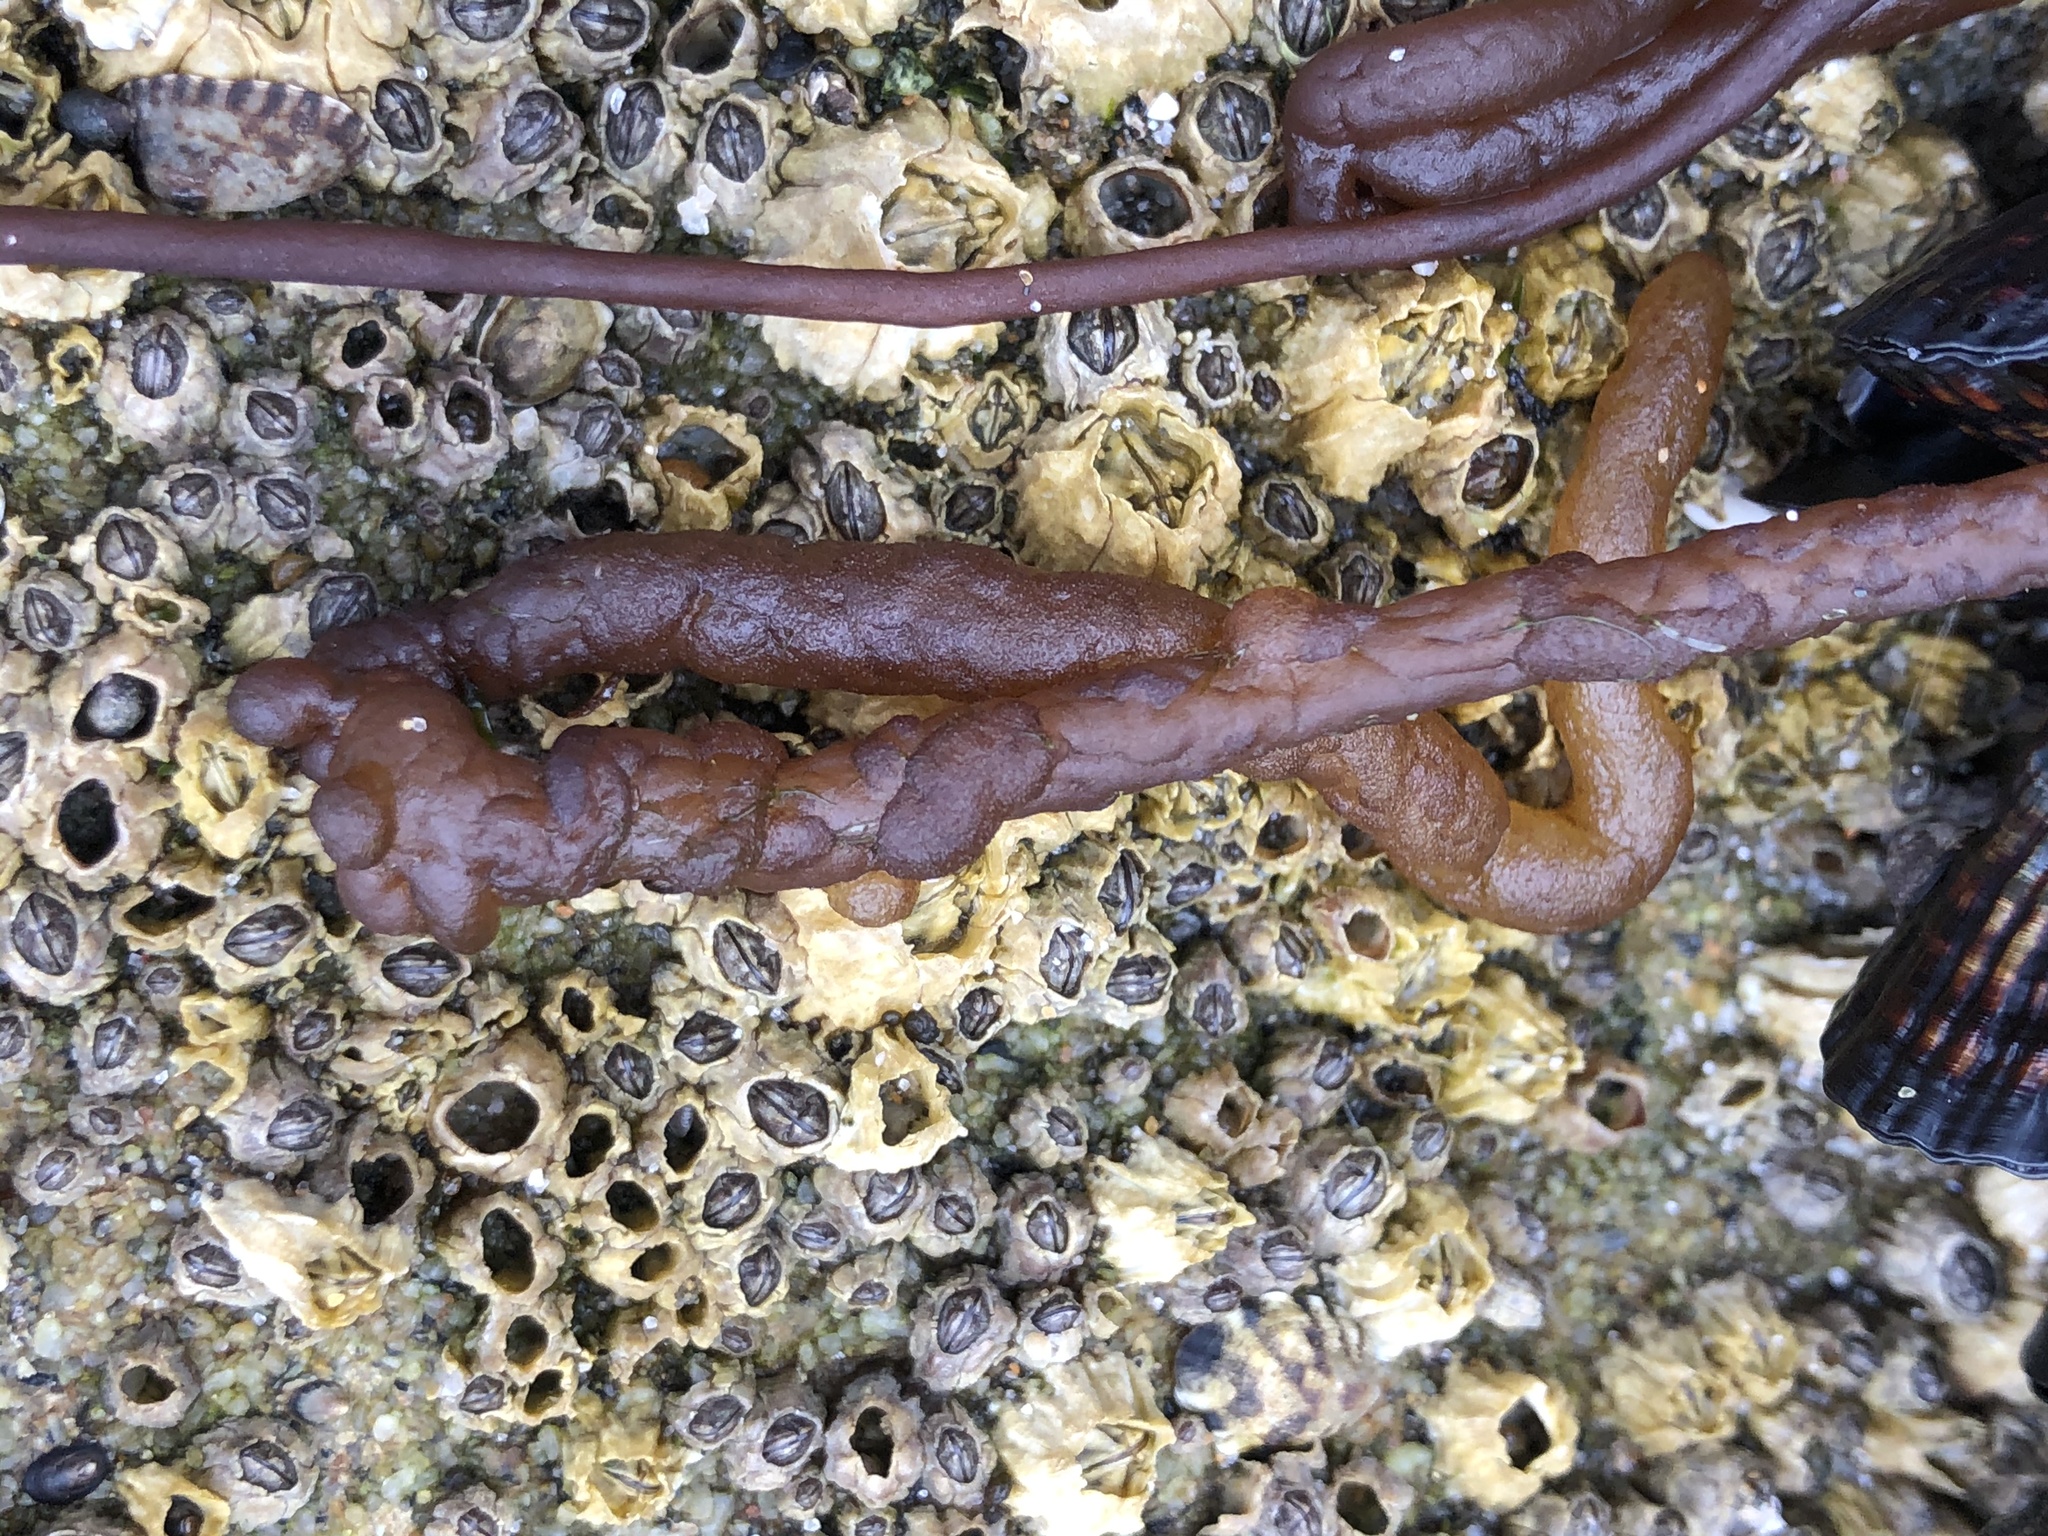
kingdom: Plantae
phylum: Rhodophyta
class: Florideophyceae
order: Nemaliales
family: Nemaliaceae
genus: Nemalion
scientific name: Nemalion elminthoides
